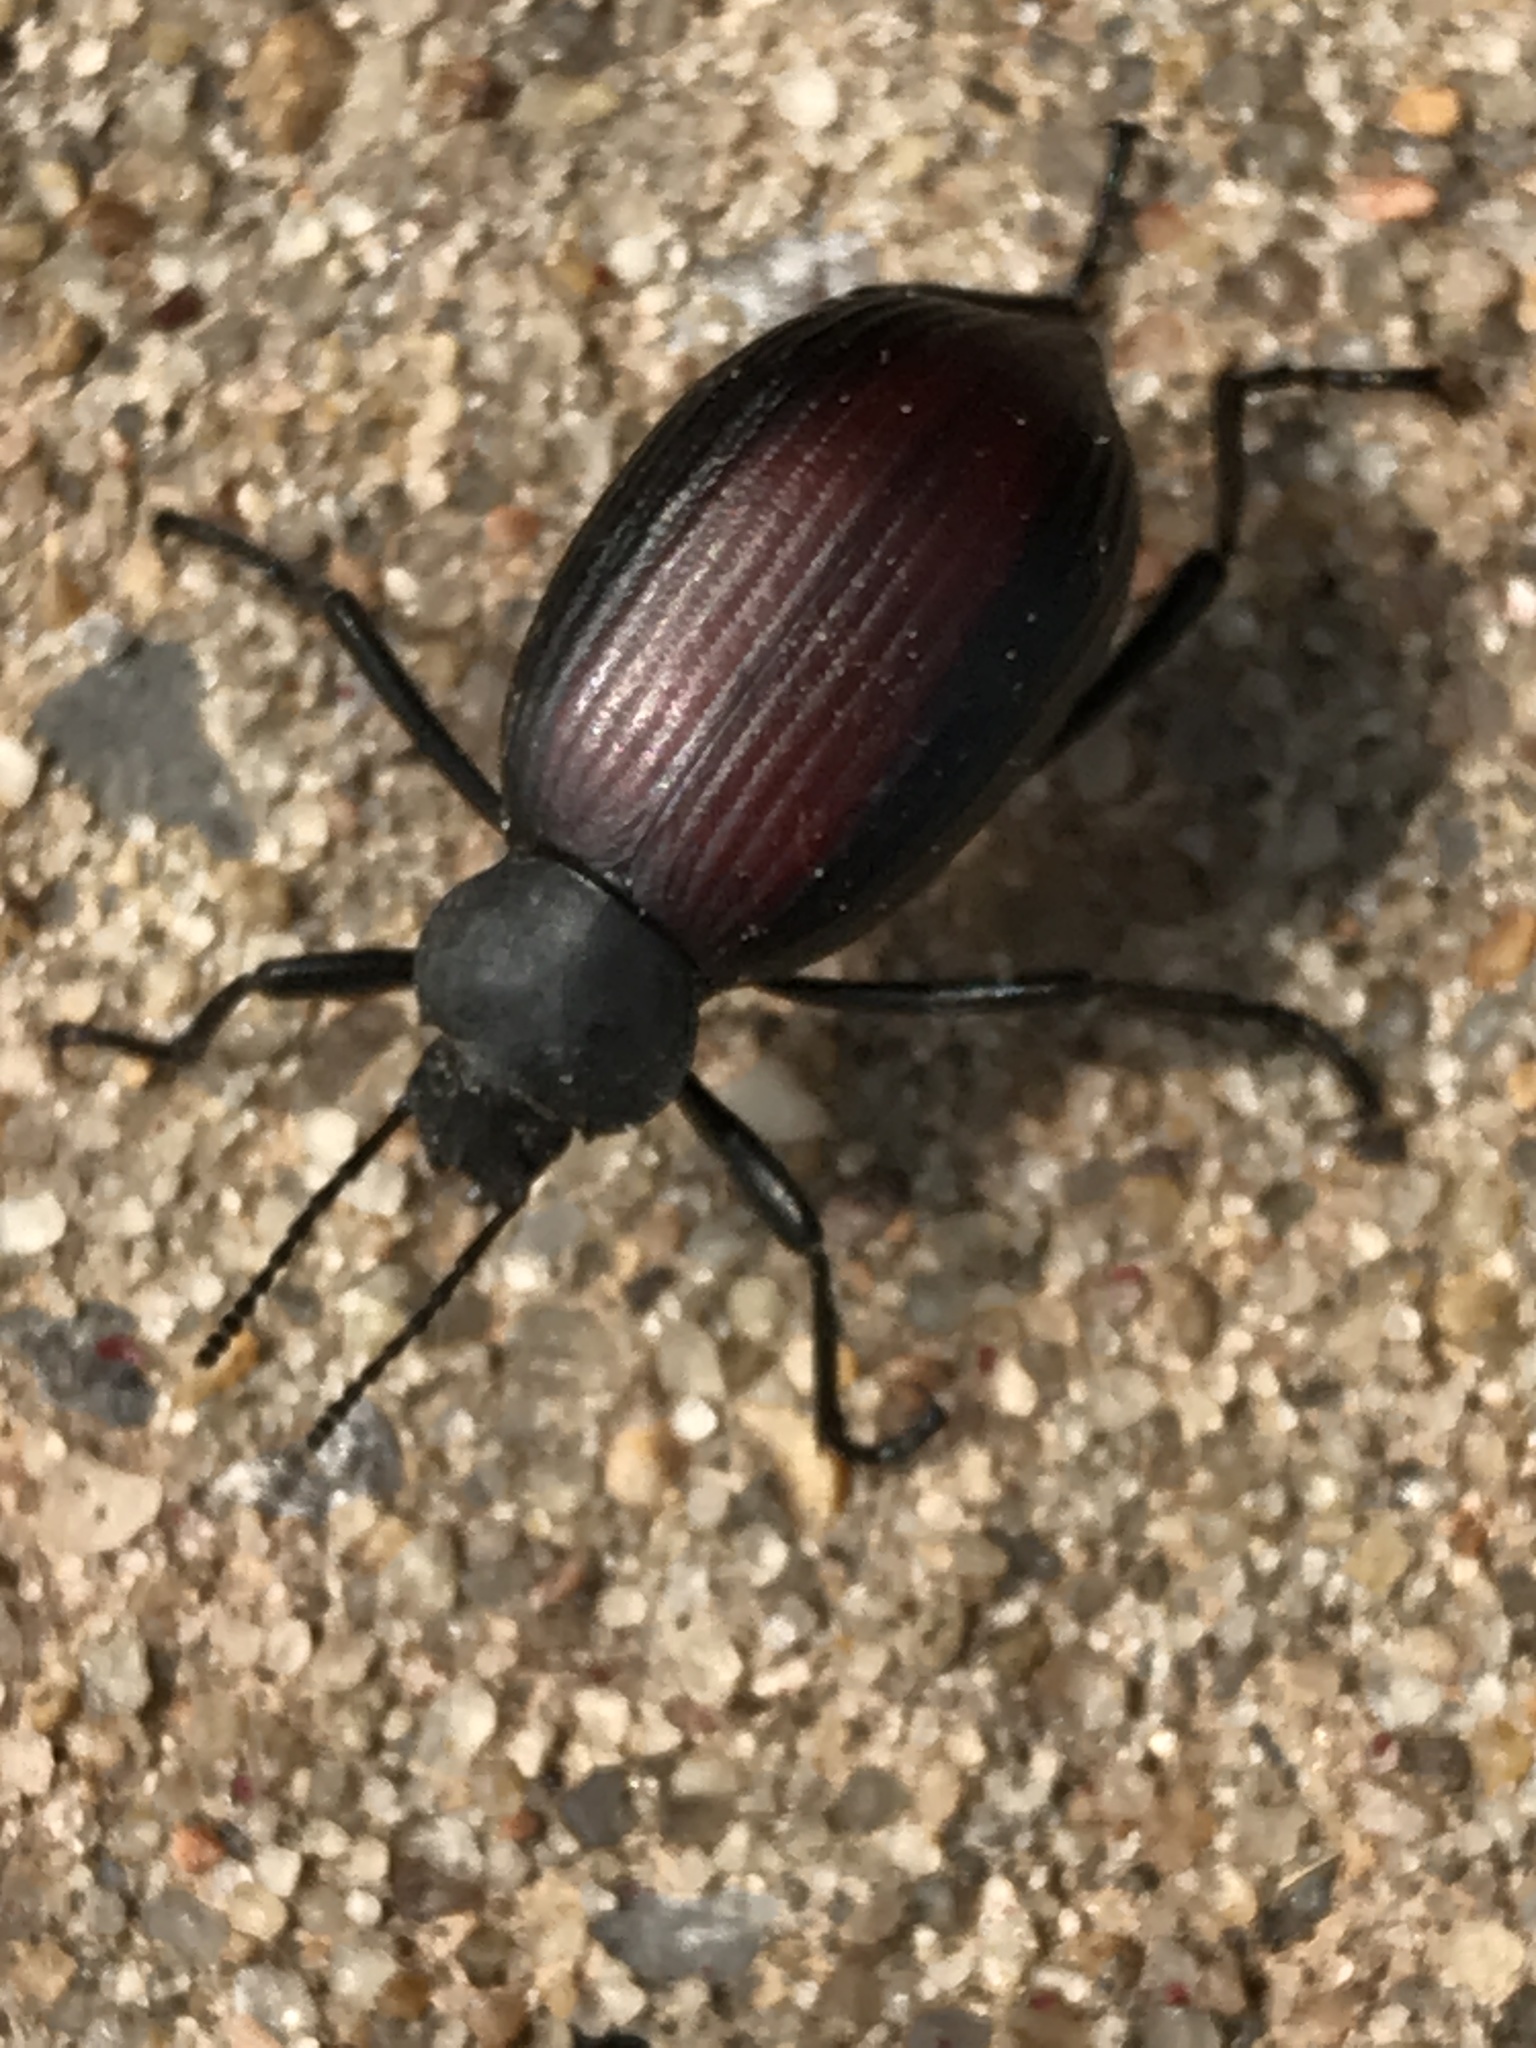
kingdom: Animalia
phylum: Arthropoda
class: Insecta
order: Coleoptera
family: Tenebrionidae
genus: Eleodes
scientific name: Eleodes hispilabris
